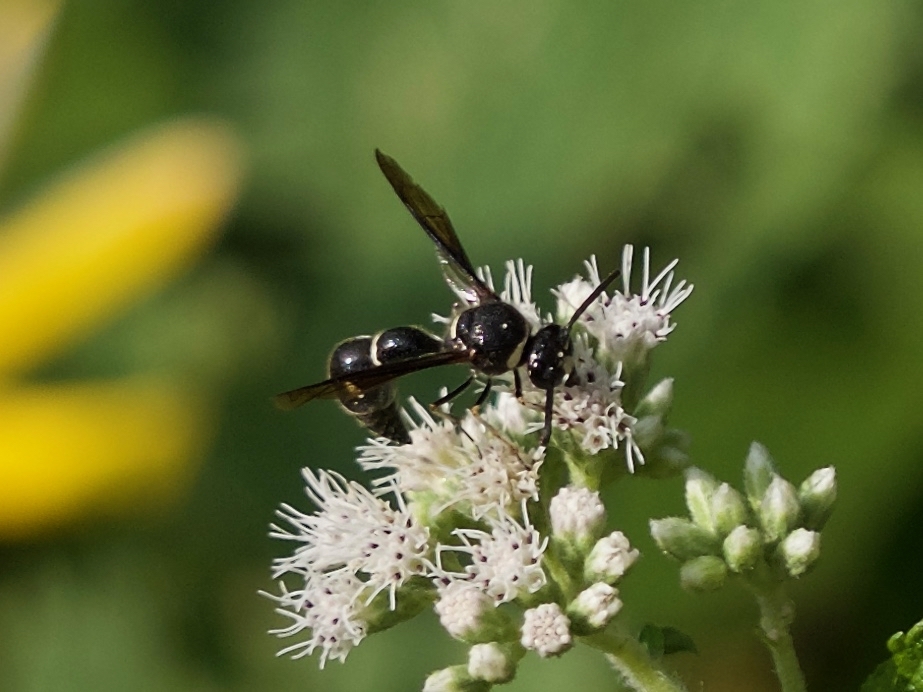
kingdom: Animalia
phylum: Arthropoda
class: Insecta
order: Hymenoptera
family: Vespidae
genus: Eumenes
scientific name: Eumenes fraternus
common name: Fraternal potter wasp
